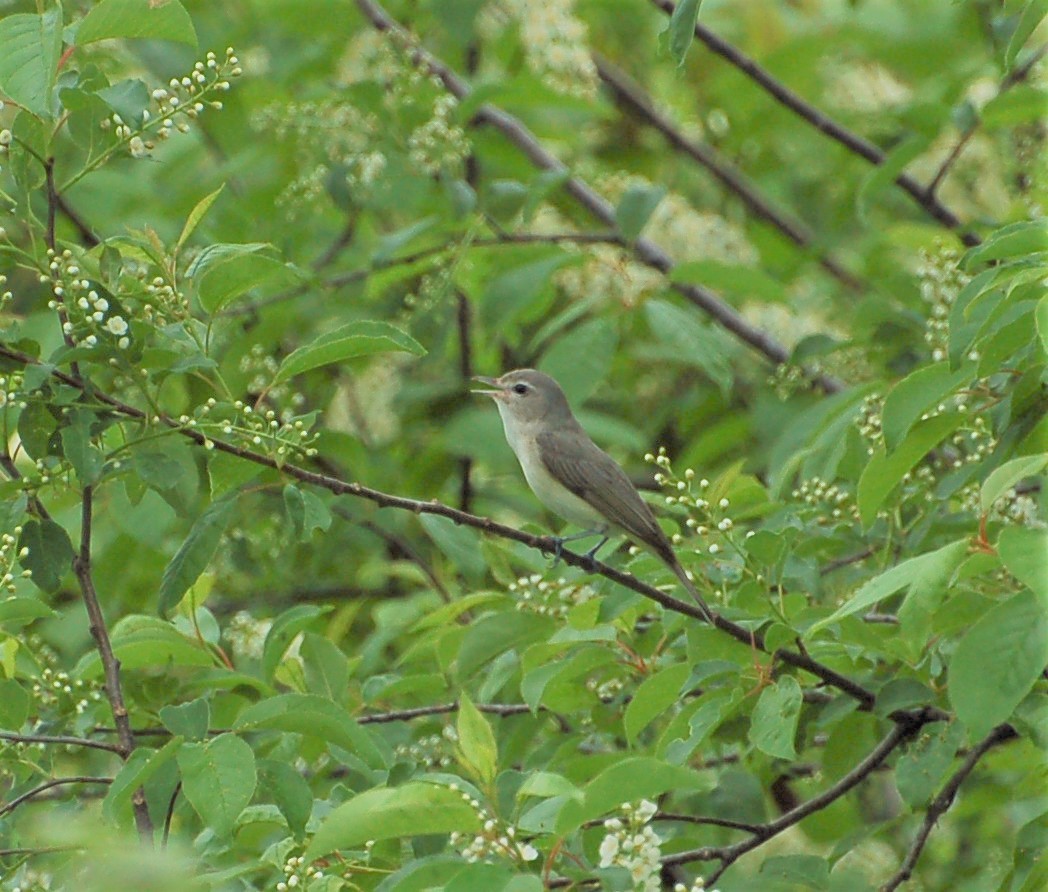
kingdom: Animalia
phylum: Chordata
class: Aves
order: Passeriformes
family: Vireonidae
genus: Vireo
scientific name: Vireo gilvus
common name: Warbling vireo
